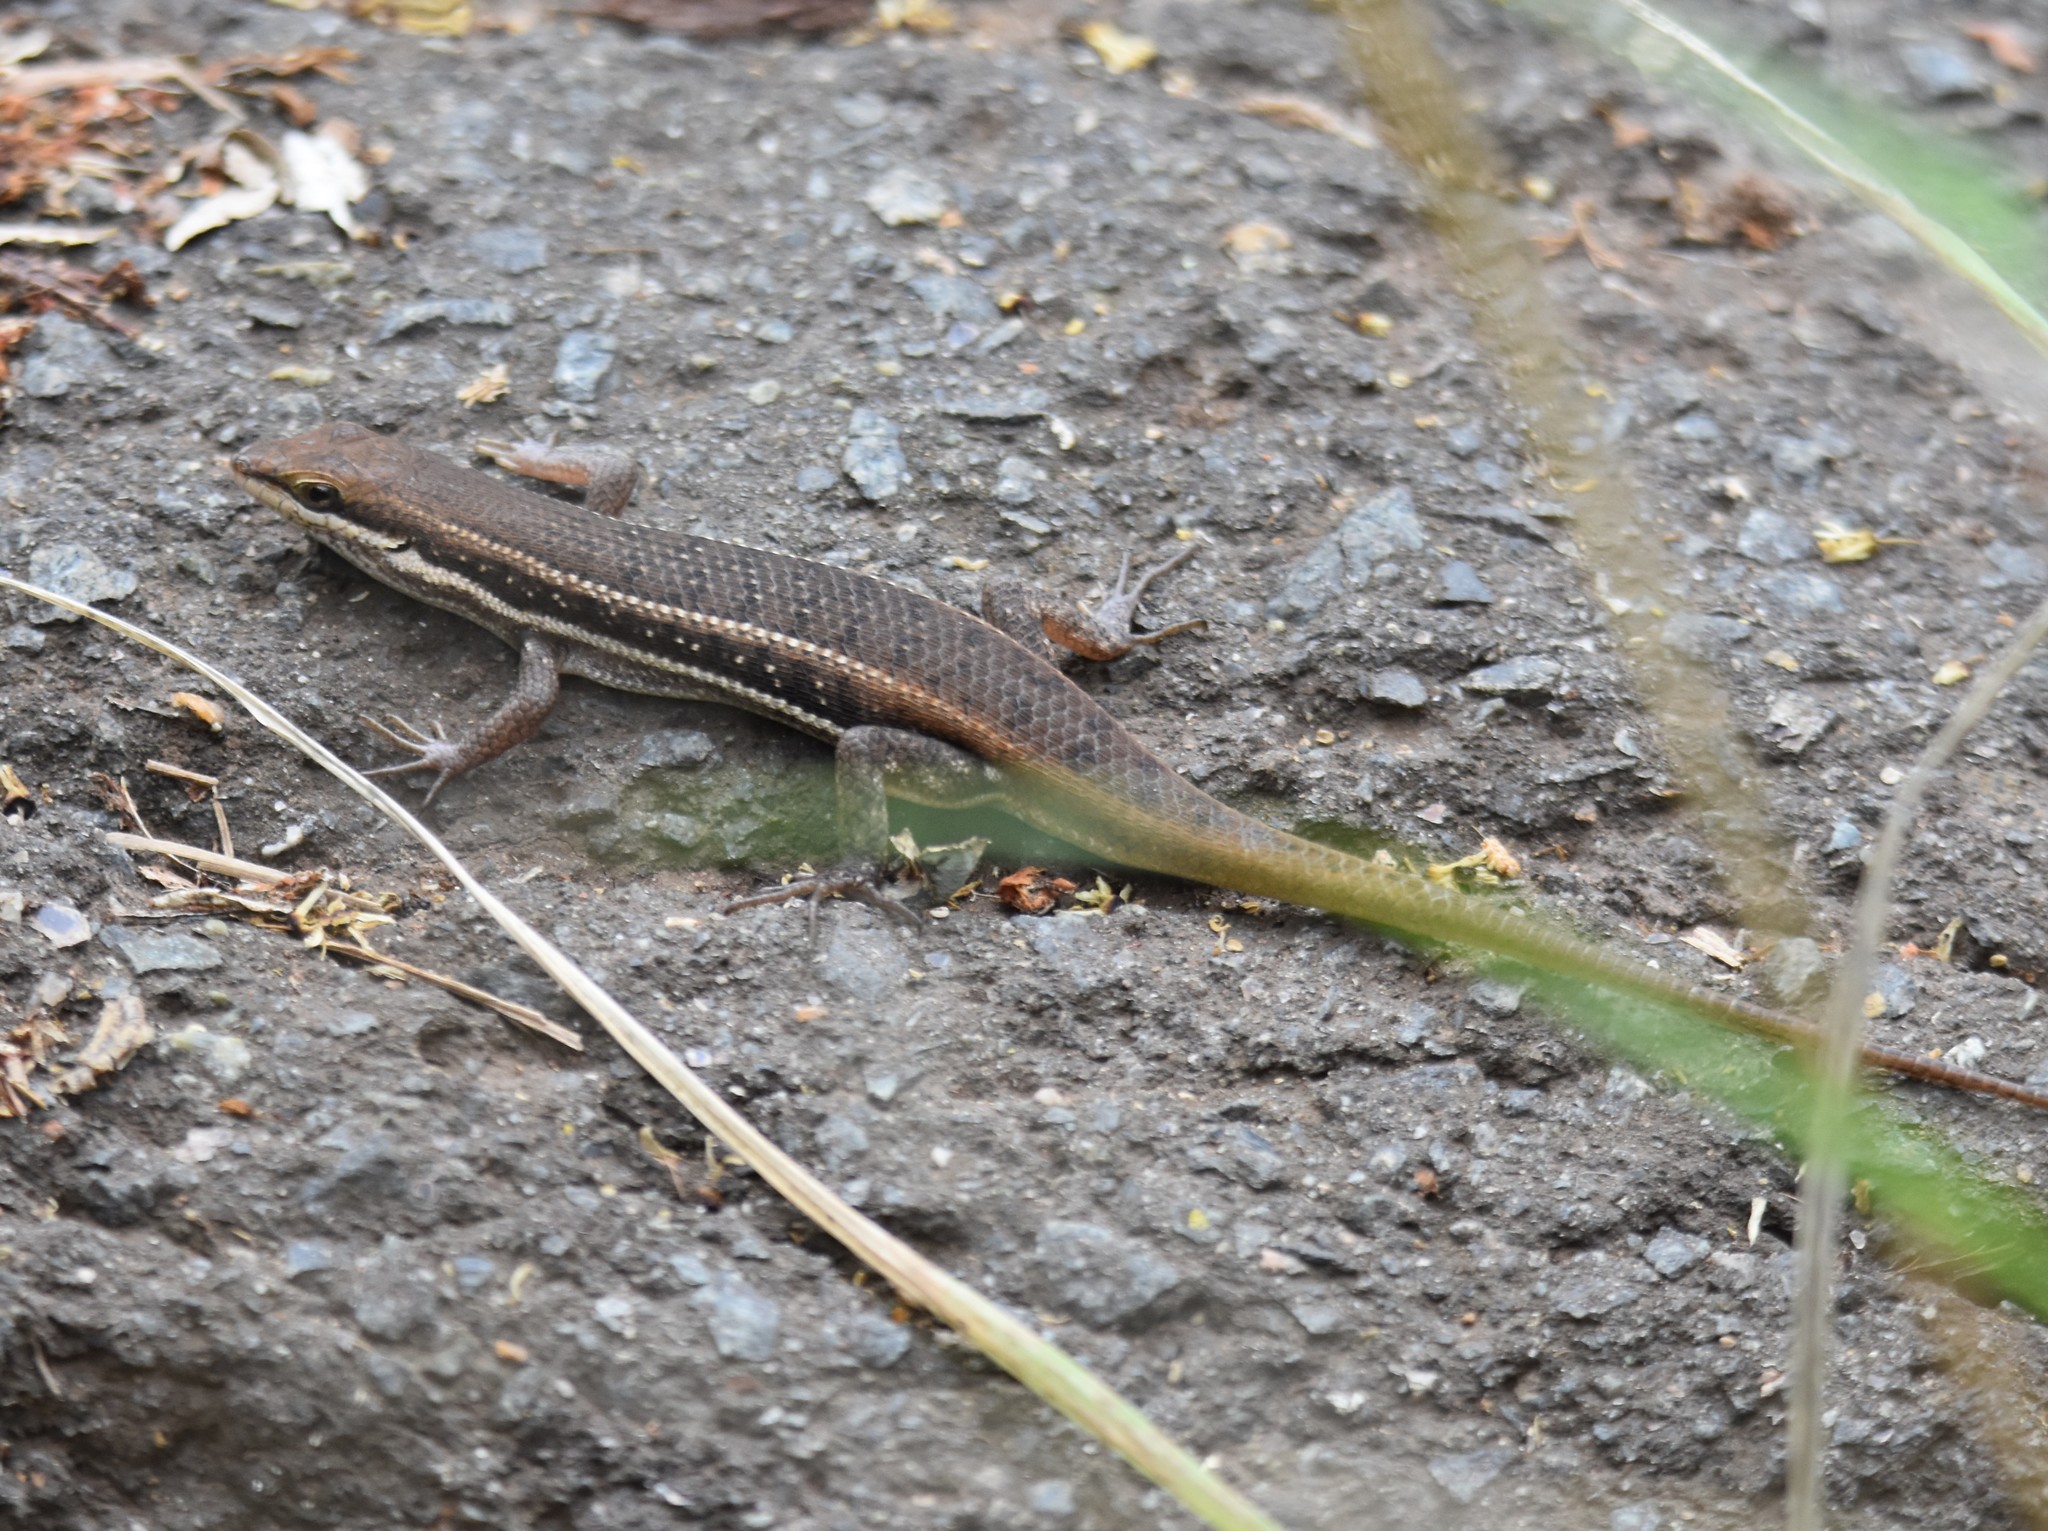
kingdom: Animalia
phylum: Chordata
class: Squamata
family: Scincidae
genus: Trachylepis
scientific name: Trachylepis varia
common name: Eastern variable skink
